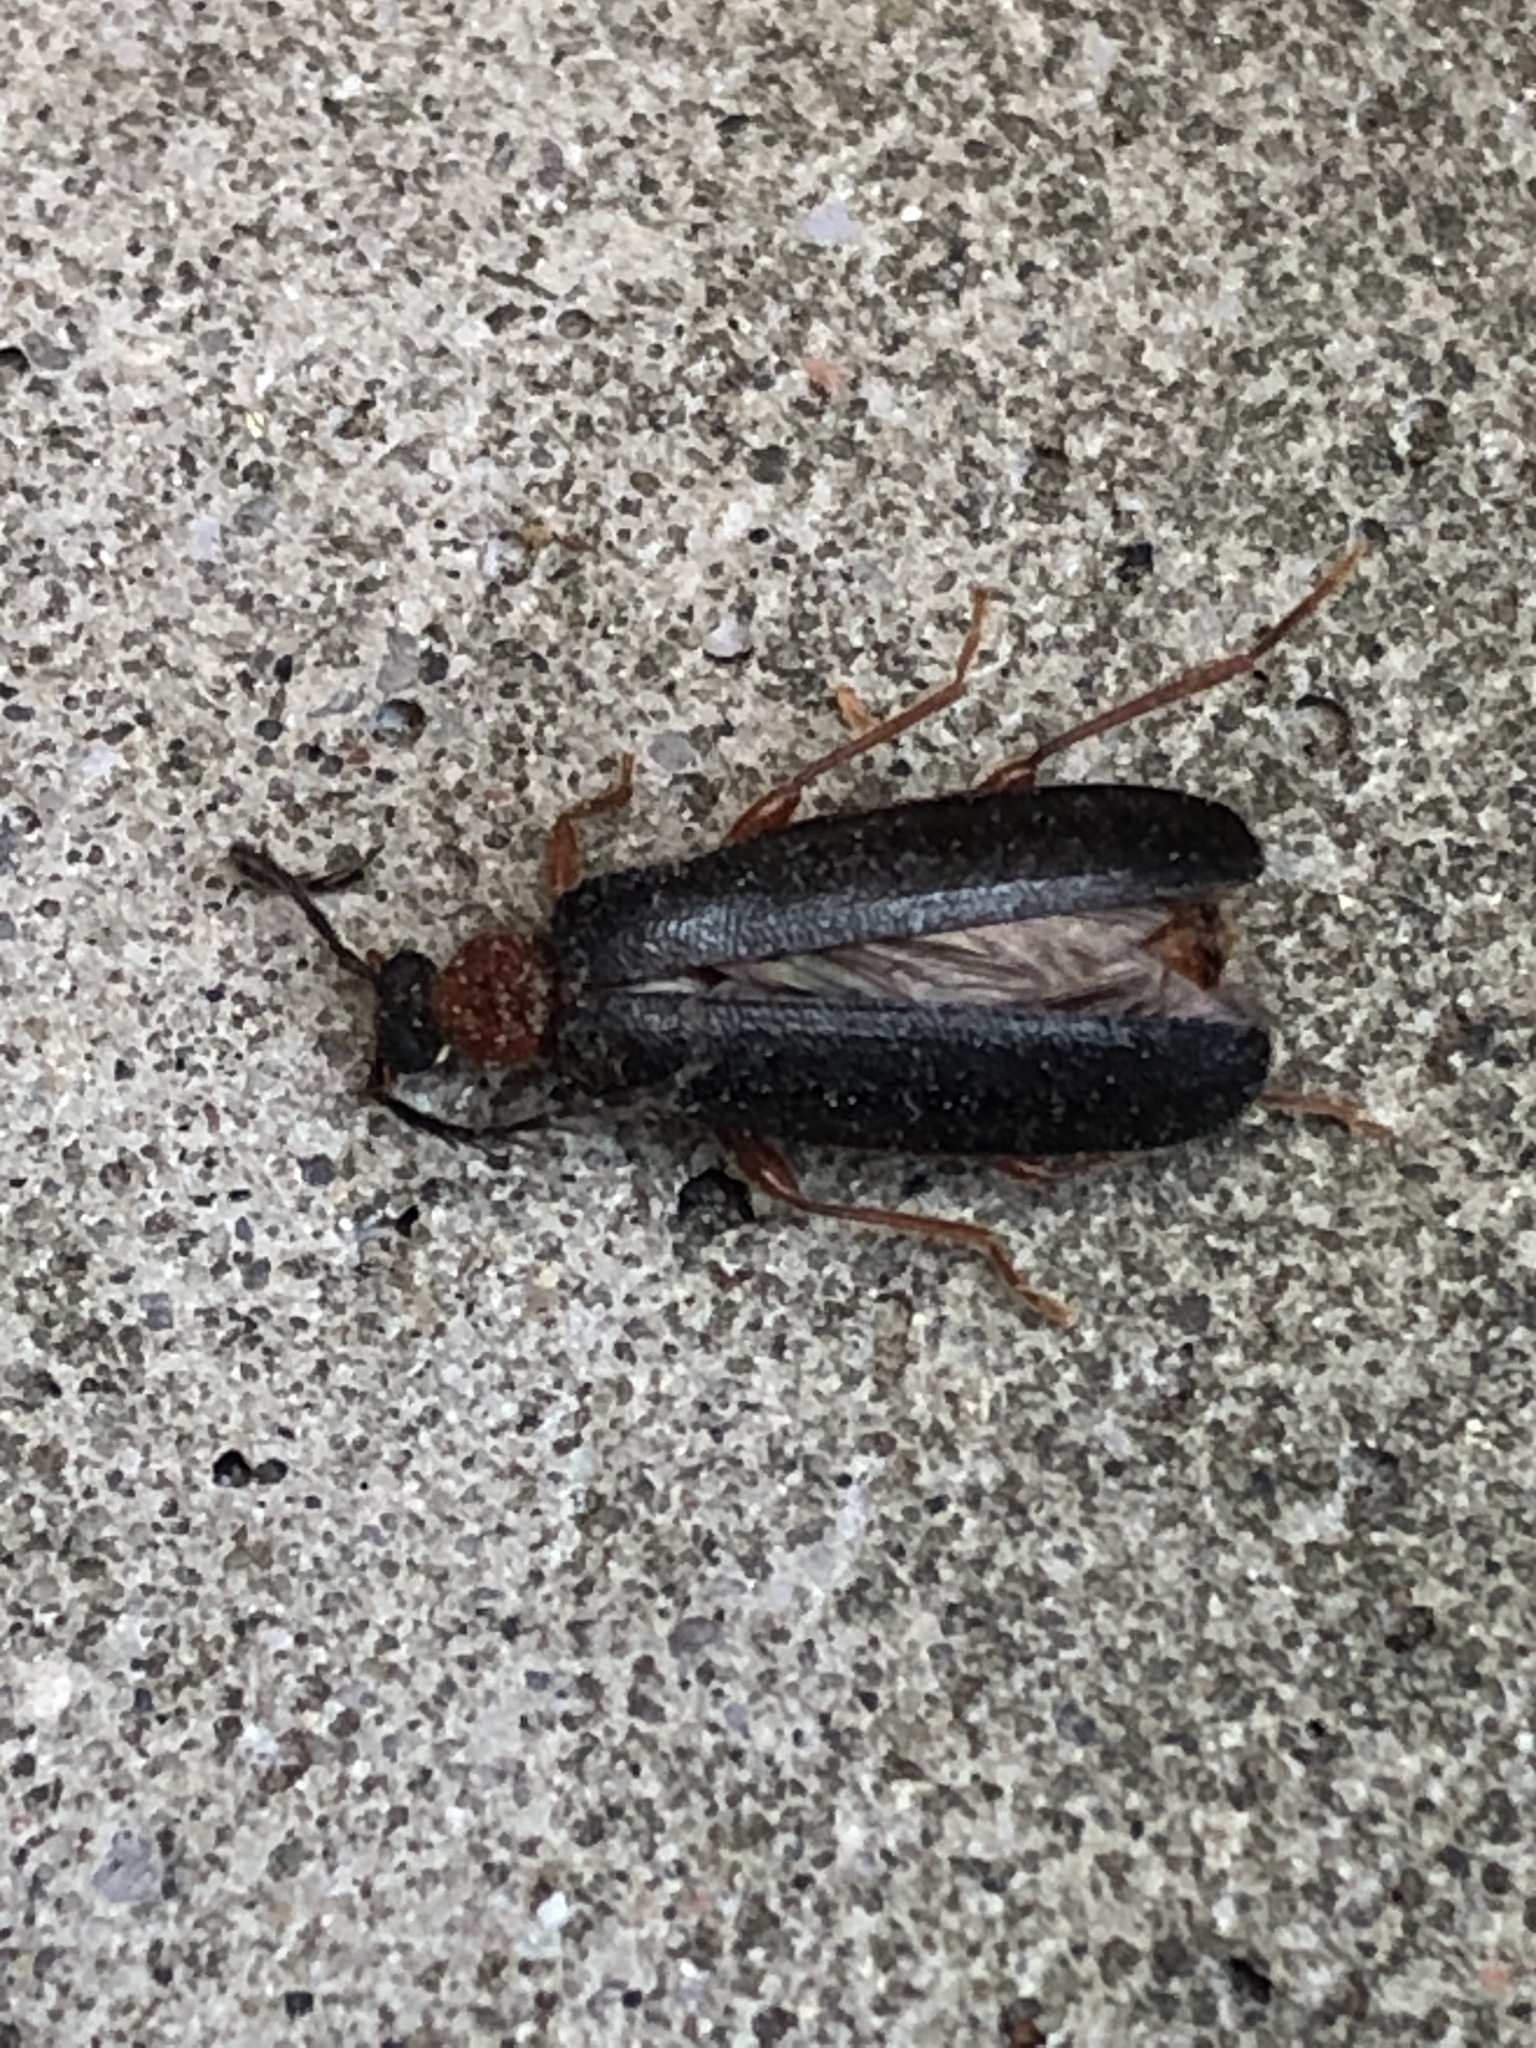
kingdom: Animalia
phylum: Arthropoda
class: Insecta
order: Coleoptera
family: Pyrochroidae
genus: Dendroides
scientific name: Dendroides canadensis
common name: Canada fire-colored beetle
